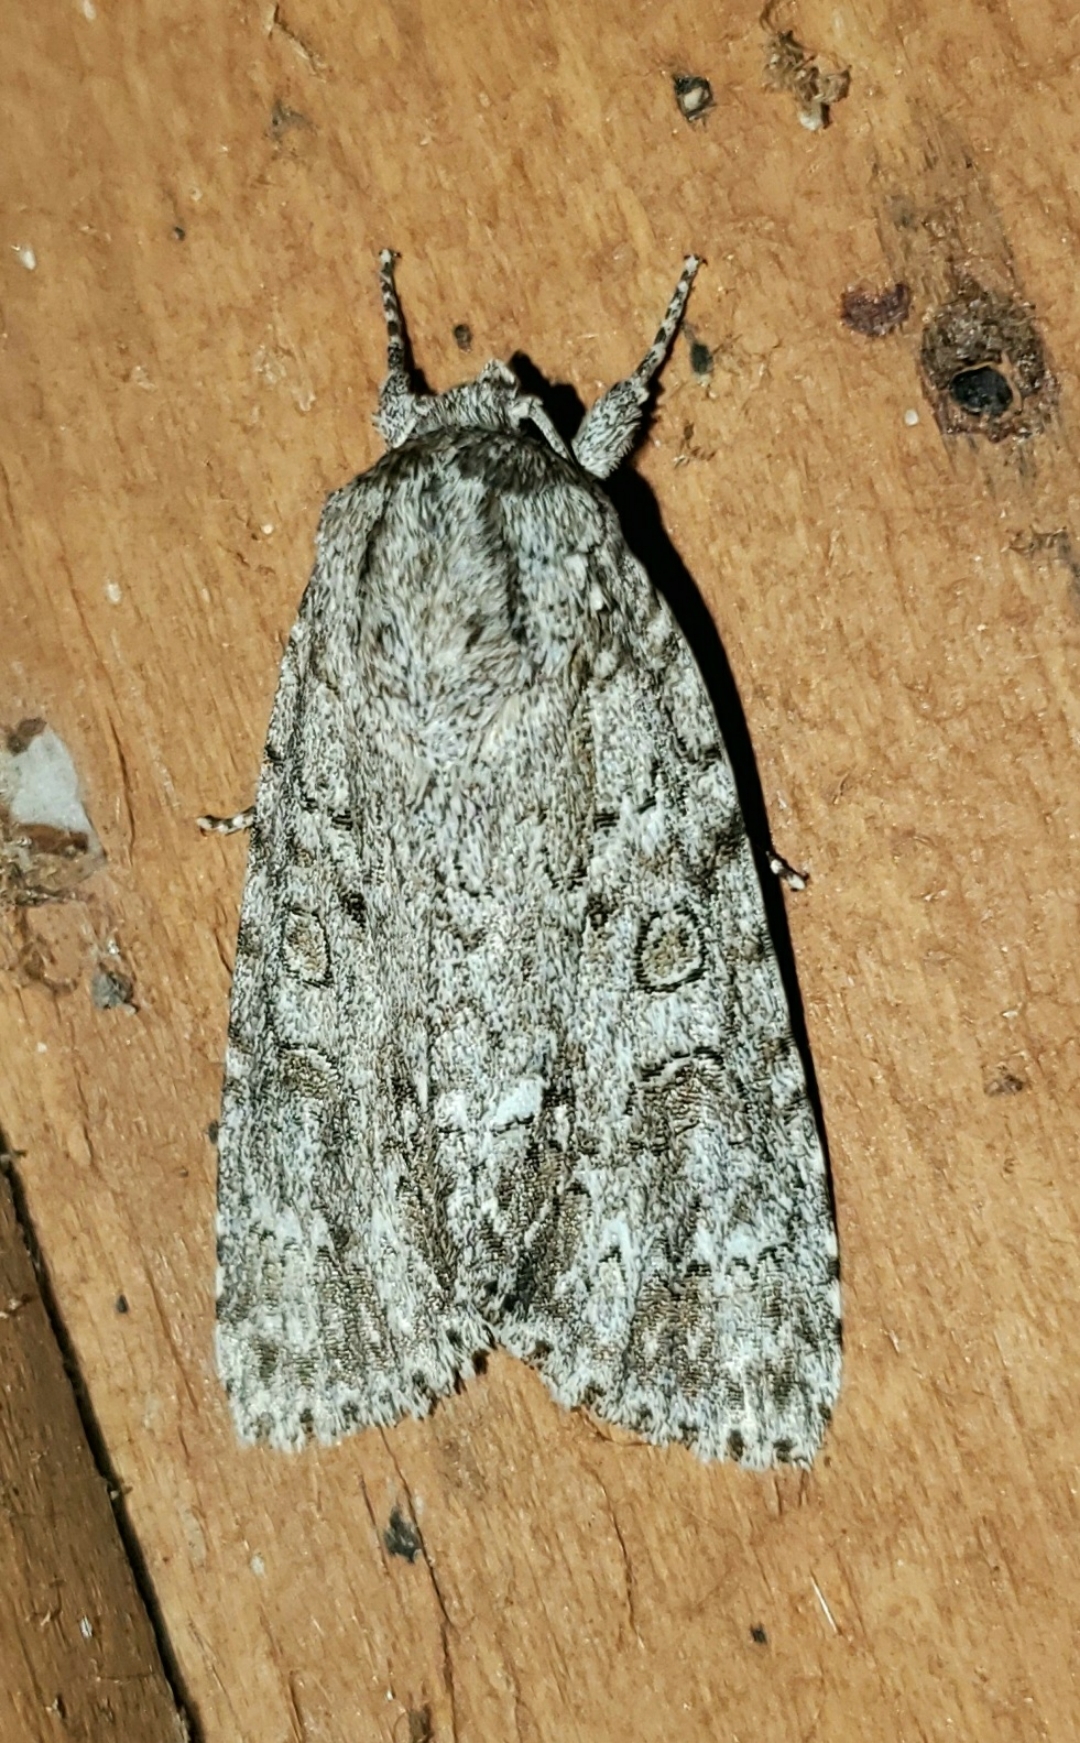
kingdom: Animalia
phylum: Arthropoda
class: Insecta
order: Lepidoptera
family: Noctuidae
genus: Acronicta
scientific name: Acronicta impleta
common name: Powdered dagger
